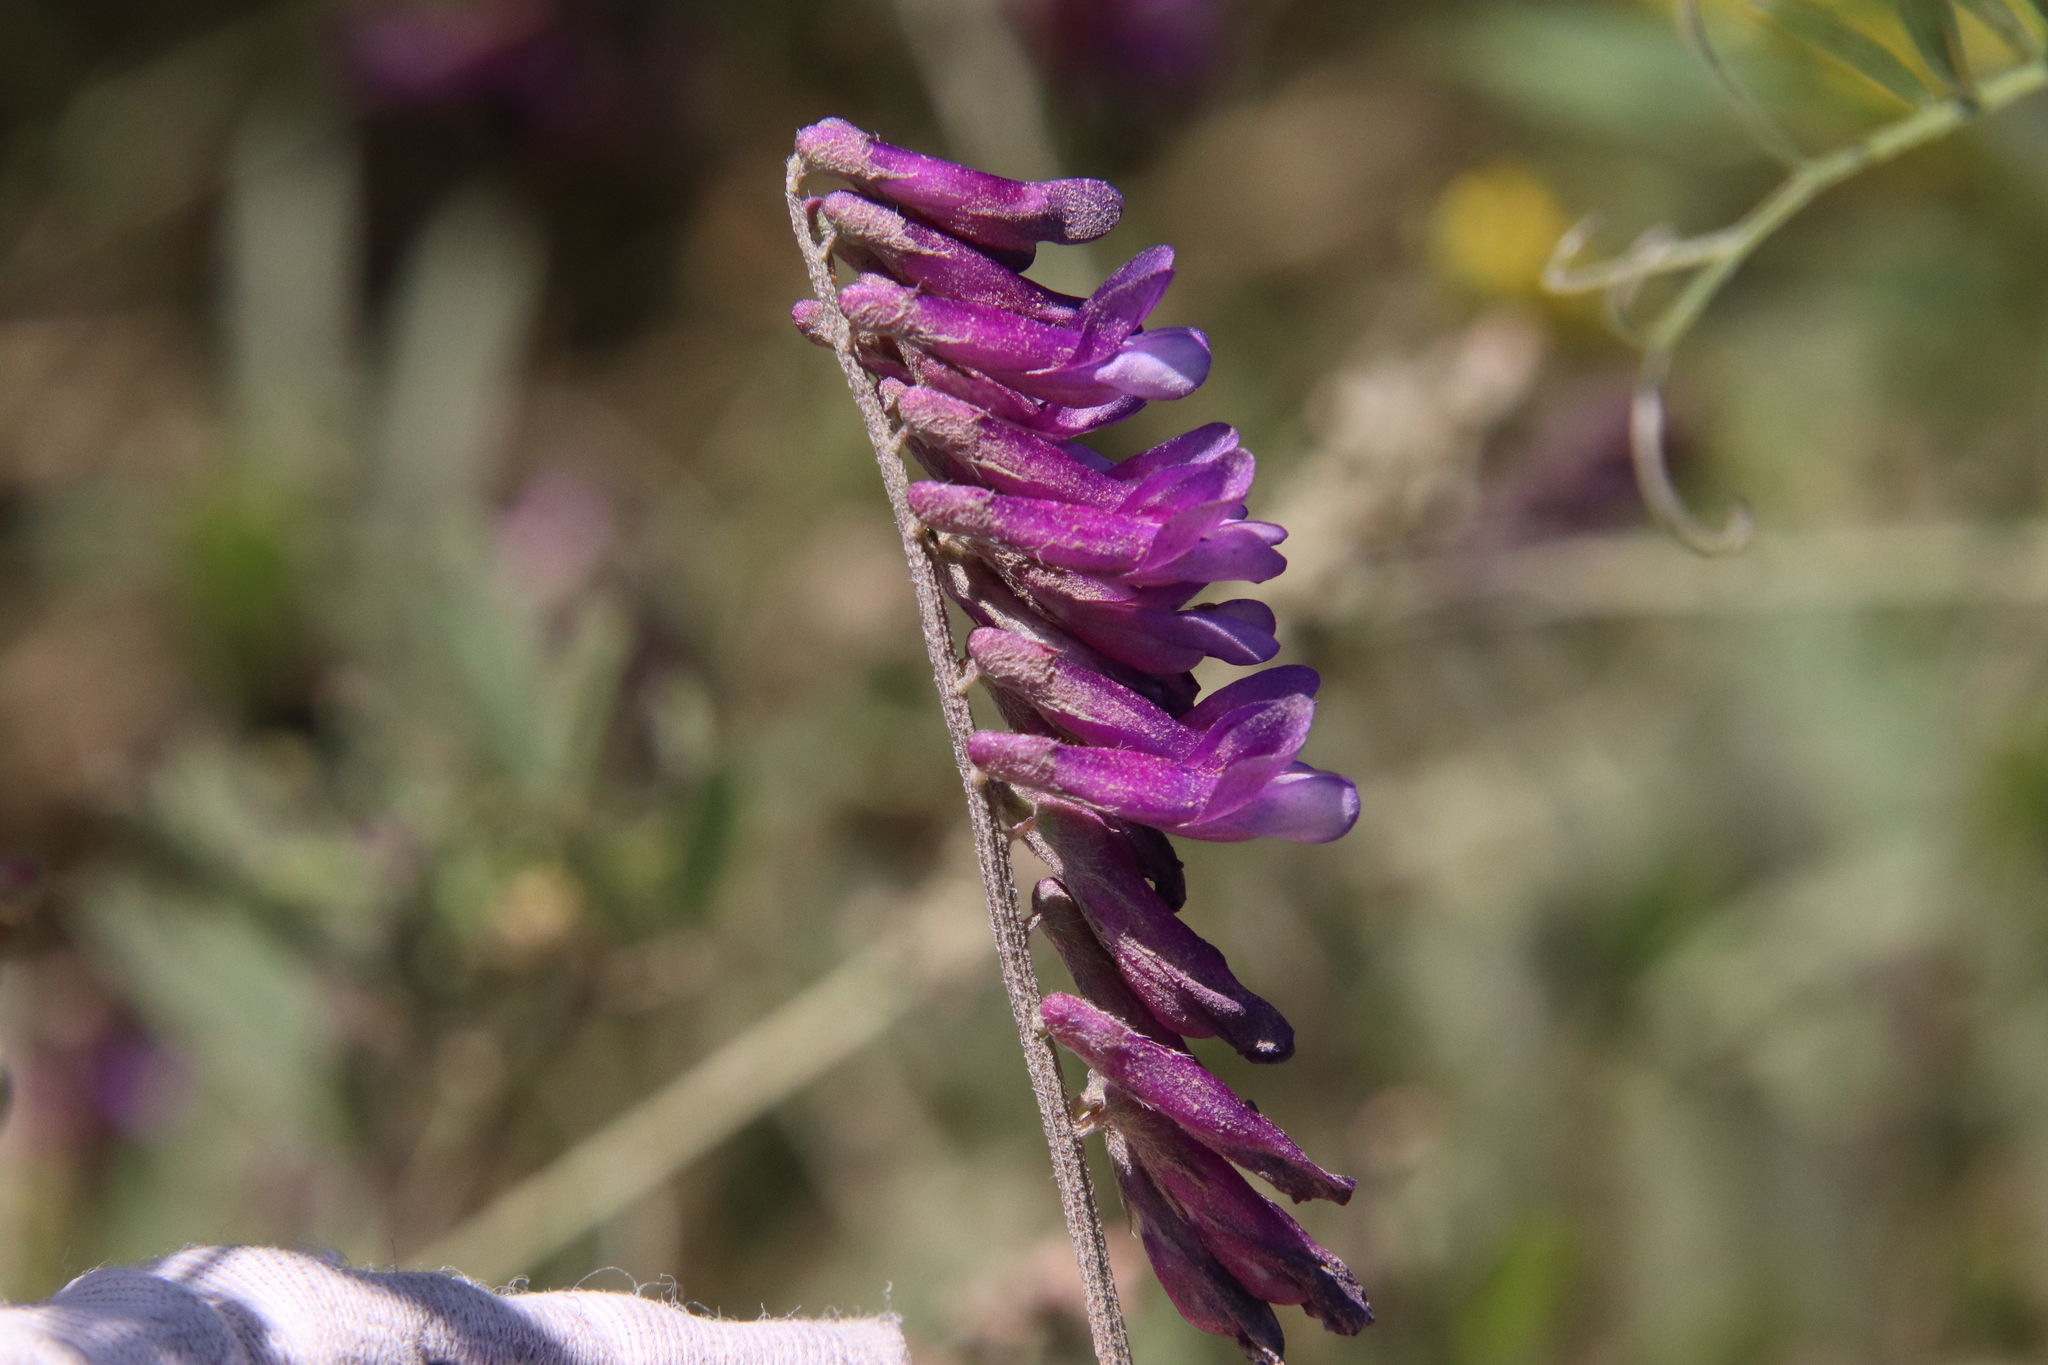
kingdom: Plantae
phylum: Tracheophyta
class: Magnoliopsida
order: Fabales
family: Fabaceae
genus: Vicia
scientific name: Vicia villosa
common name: Fodder vetch
